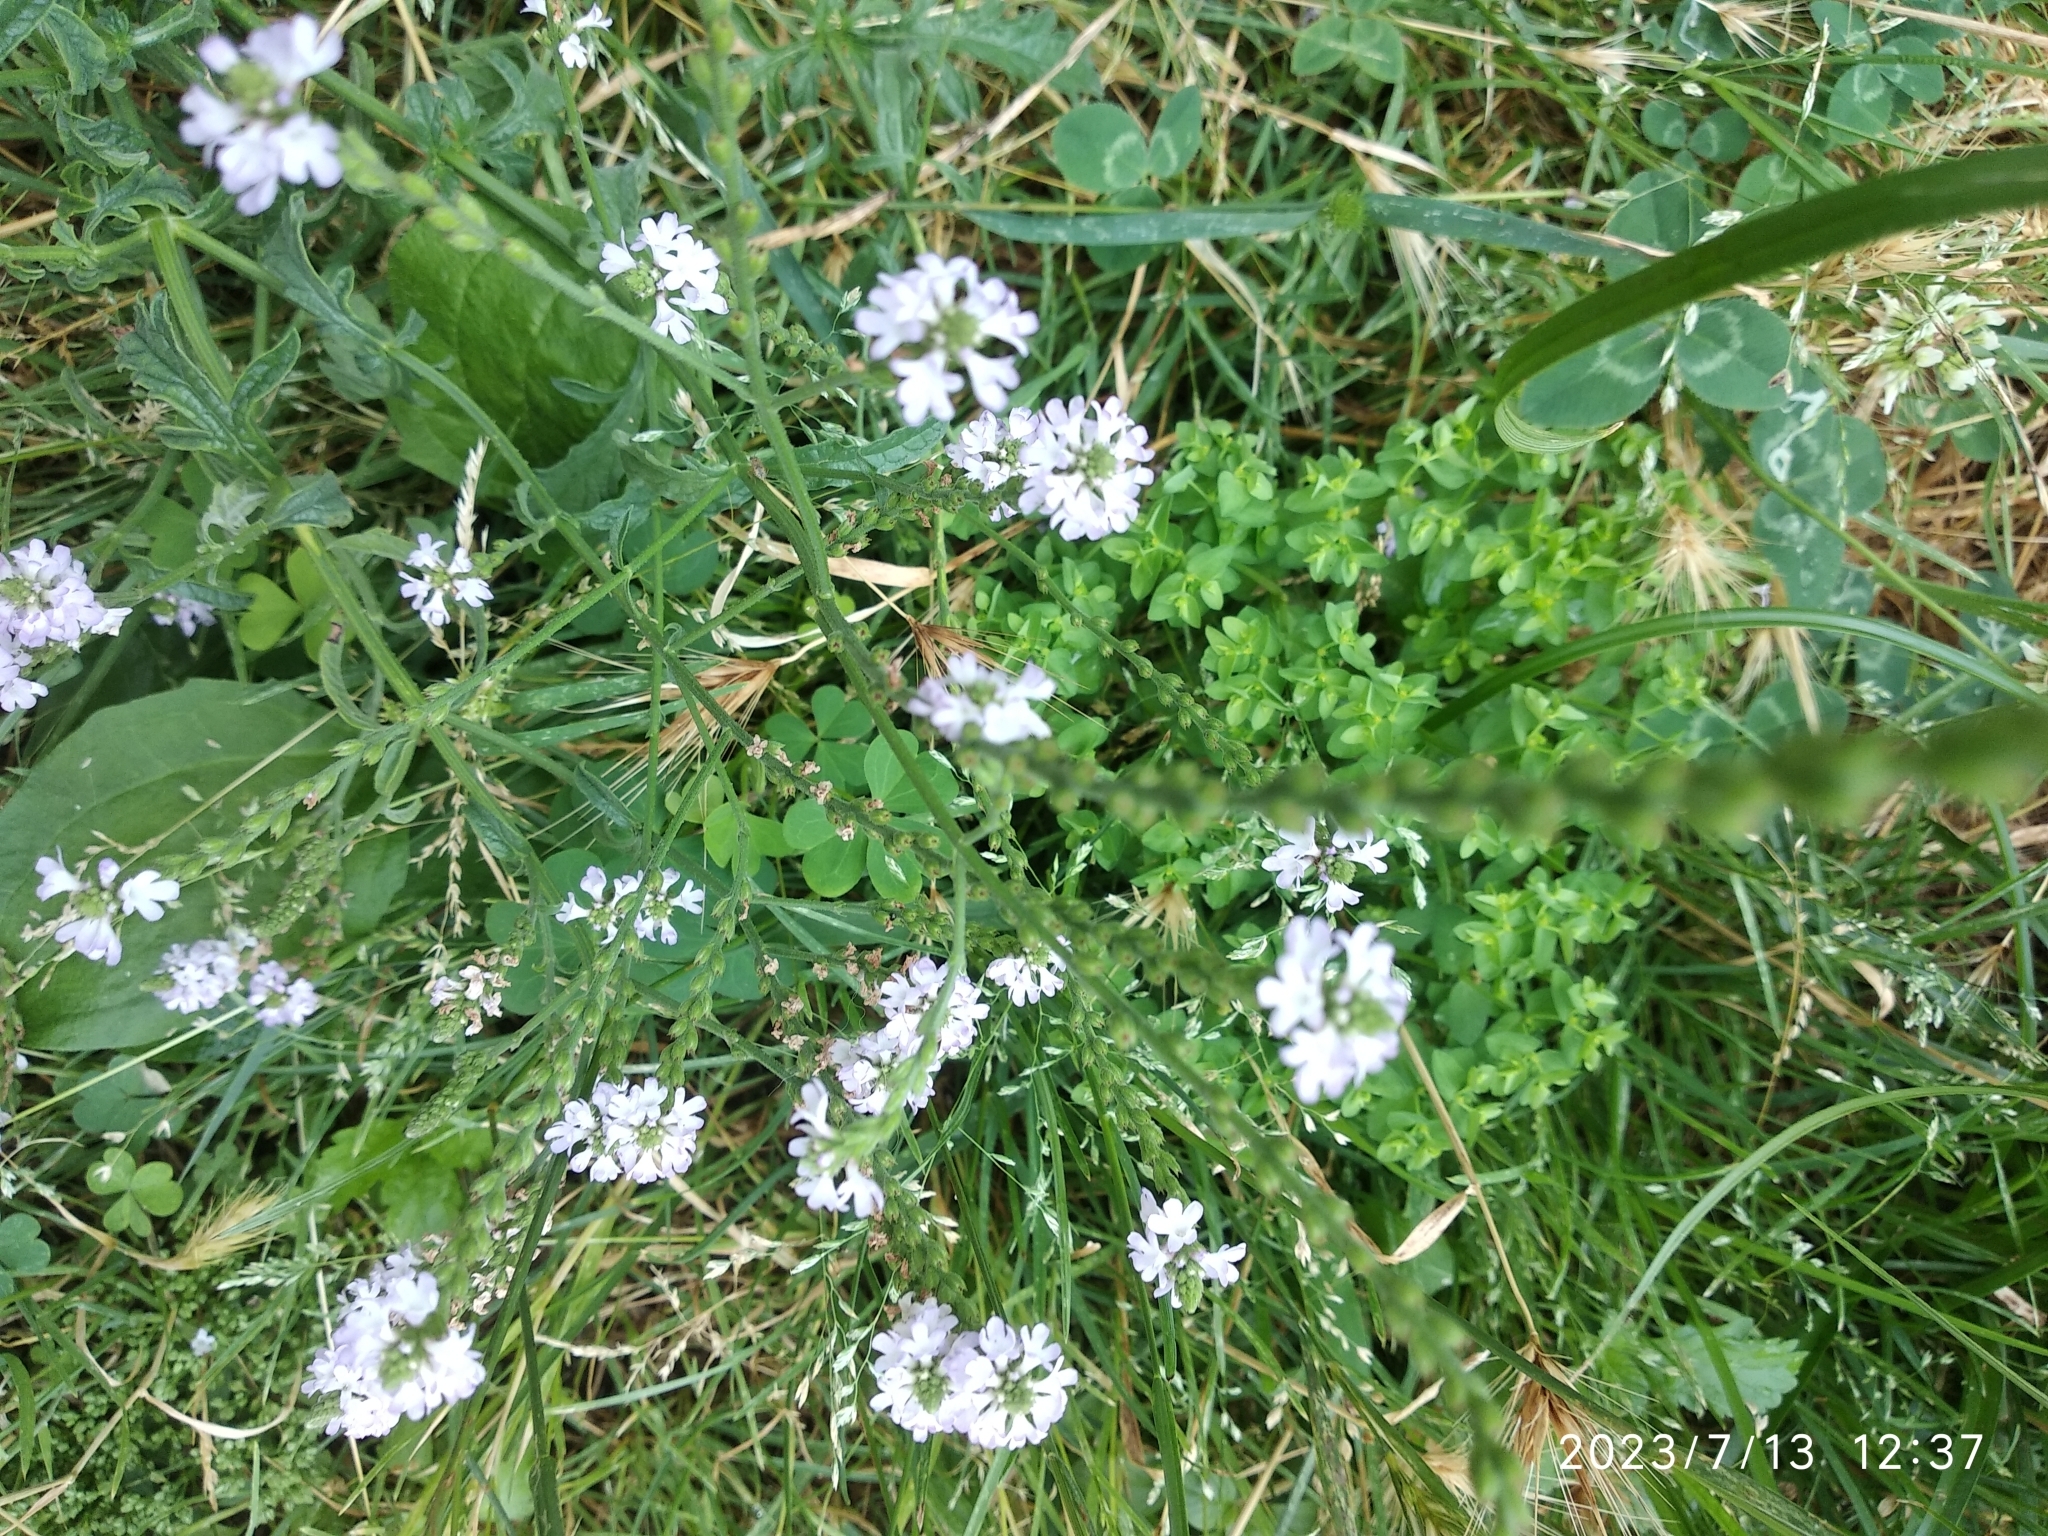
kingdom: Plantae
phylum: Tracheophyta
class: Magnoliopsida
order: Lamiales
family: Verbenaceae
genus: Verbena
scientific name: Verbena officinalis
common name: Vervain
